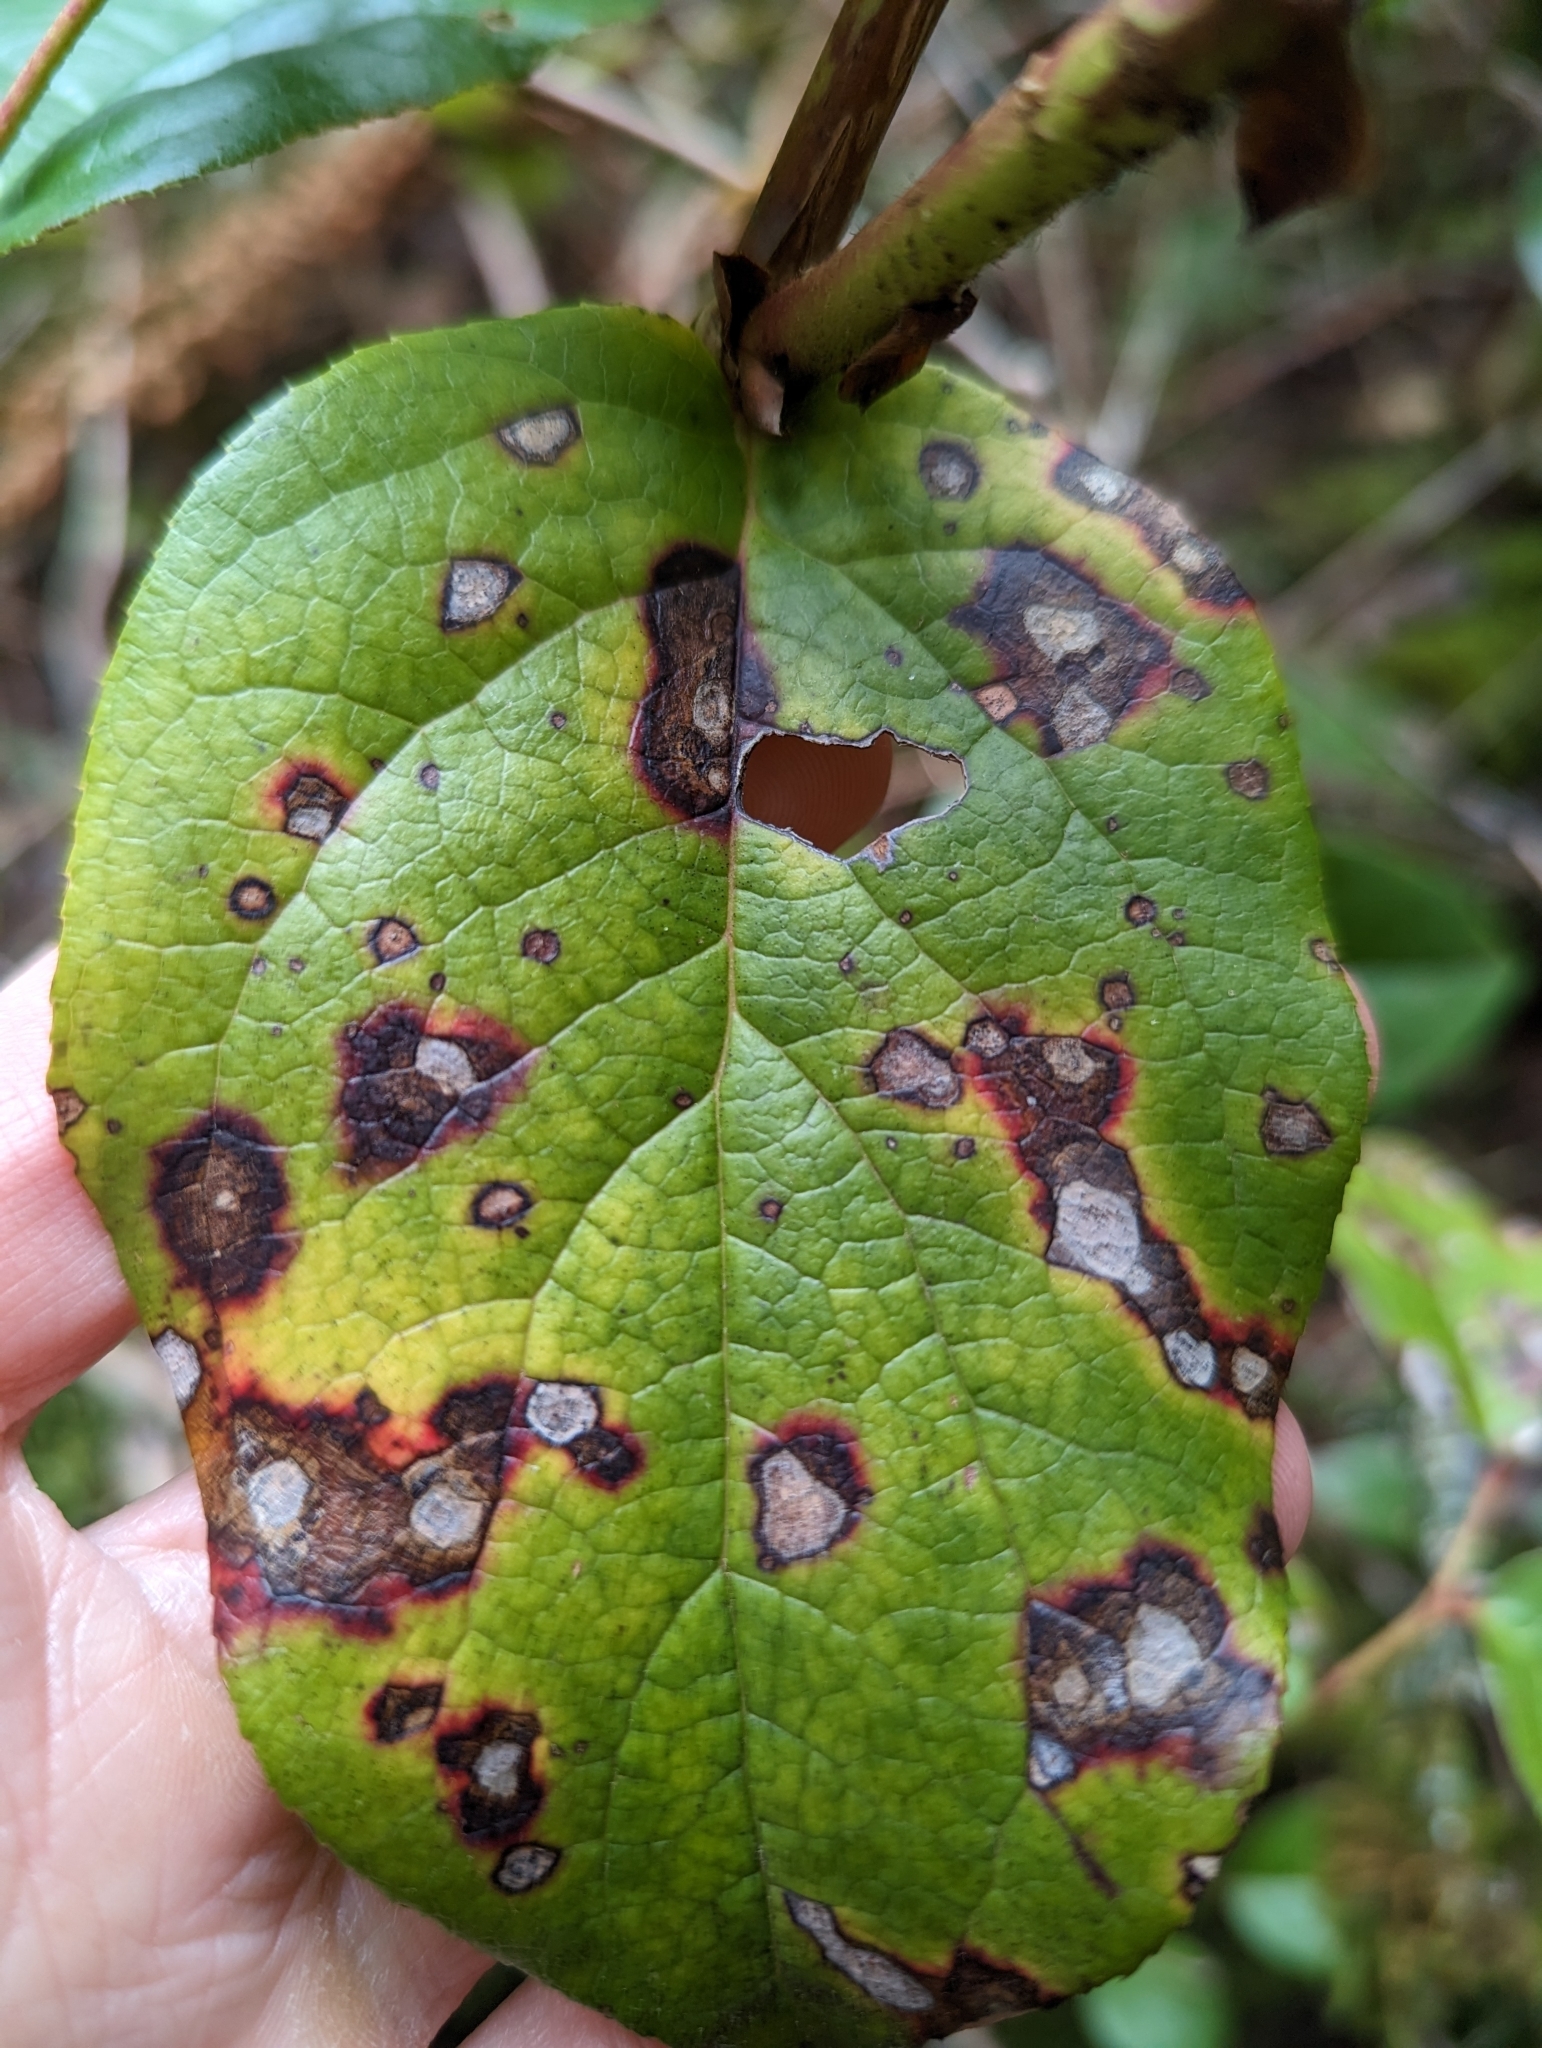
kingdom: Animalia
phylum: Arthropoda
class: Insecta
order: Lepidoptera
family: Gracillariidae
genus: Cameraria
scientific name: Cameraria gaultheriella
